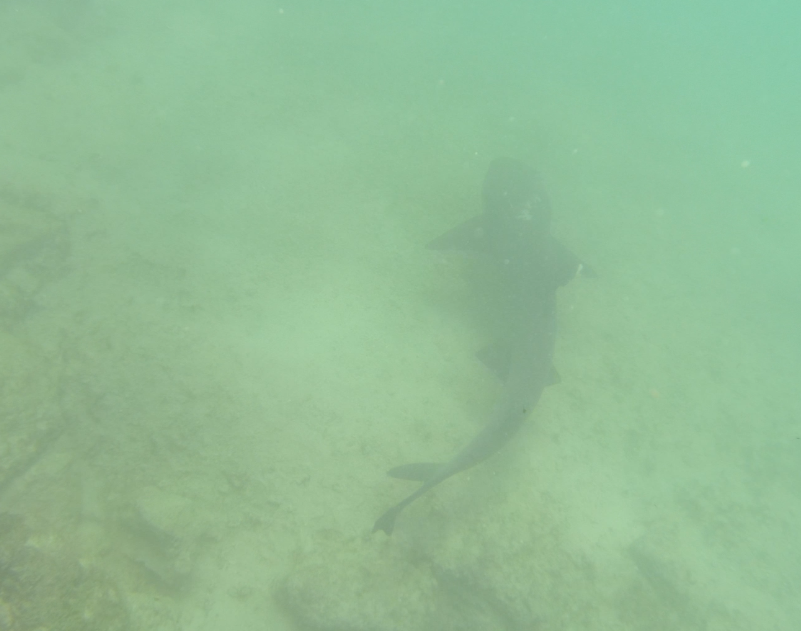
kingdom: Animalia
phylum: Chordata
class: Elasmobranchii
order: Carcharhiniformes
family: Carcharhinidae
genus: Triaenodon
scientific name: Triaenodon obesus
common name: Whitetip reef shark
